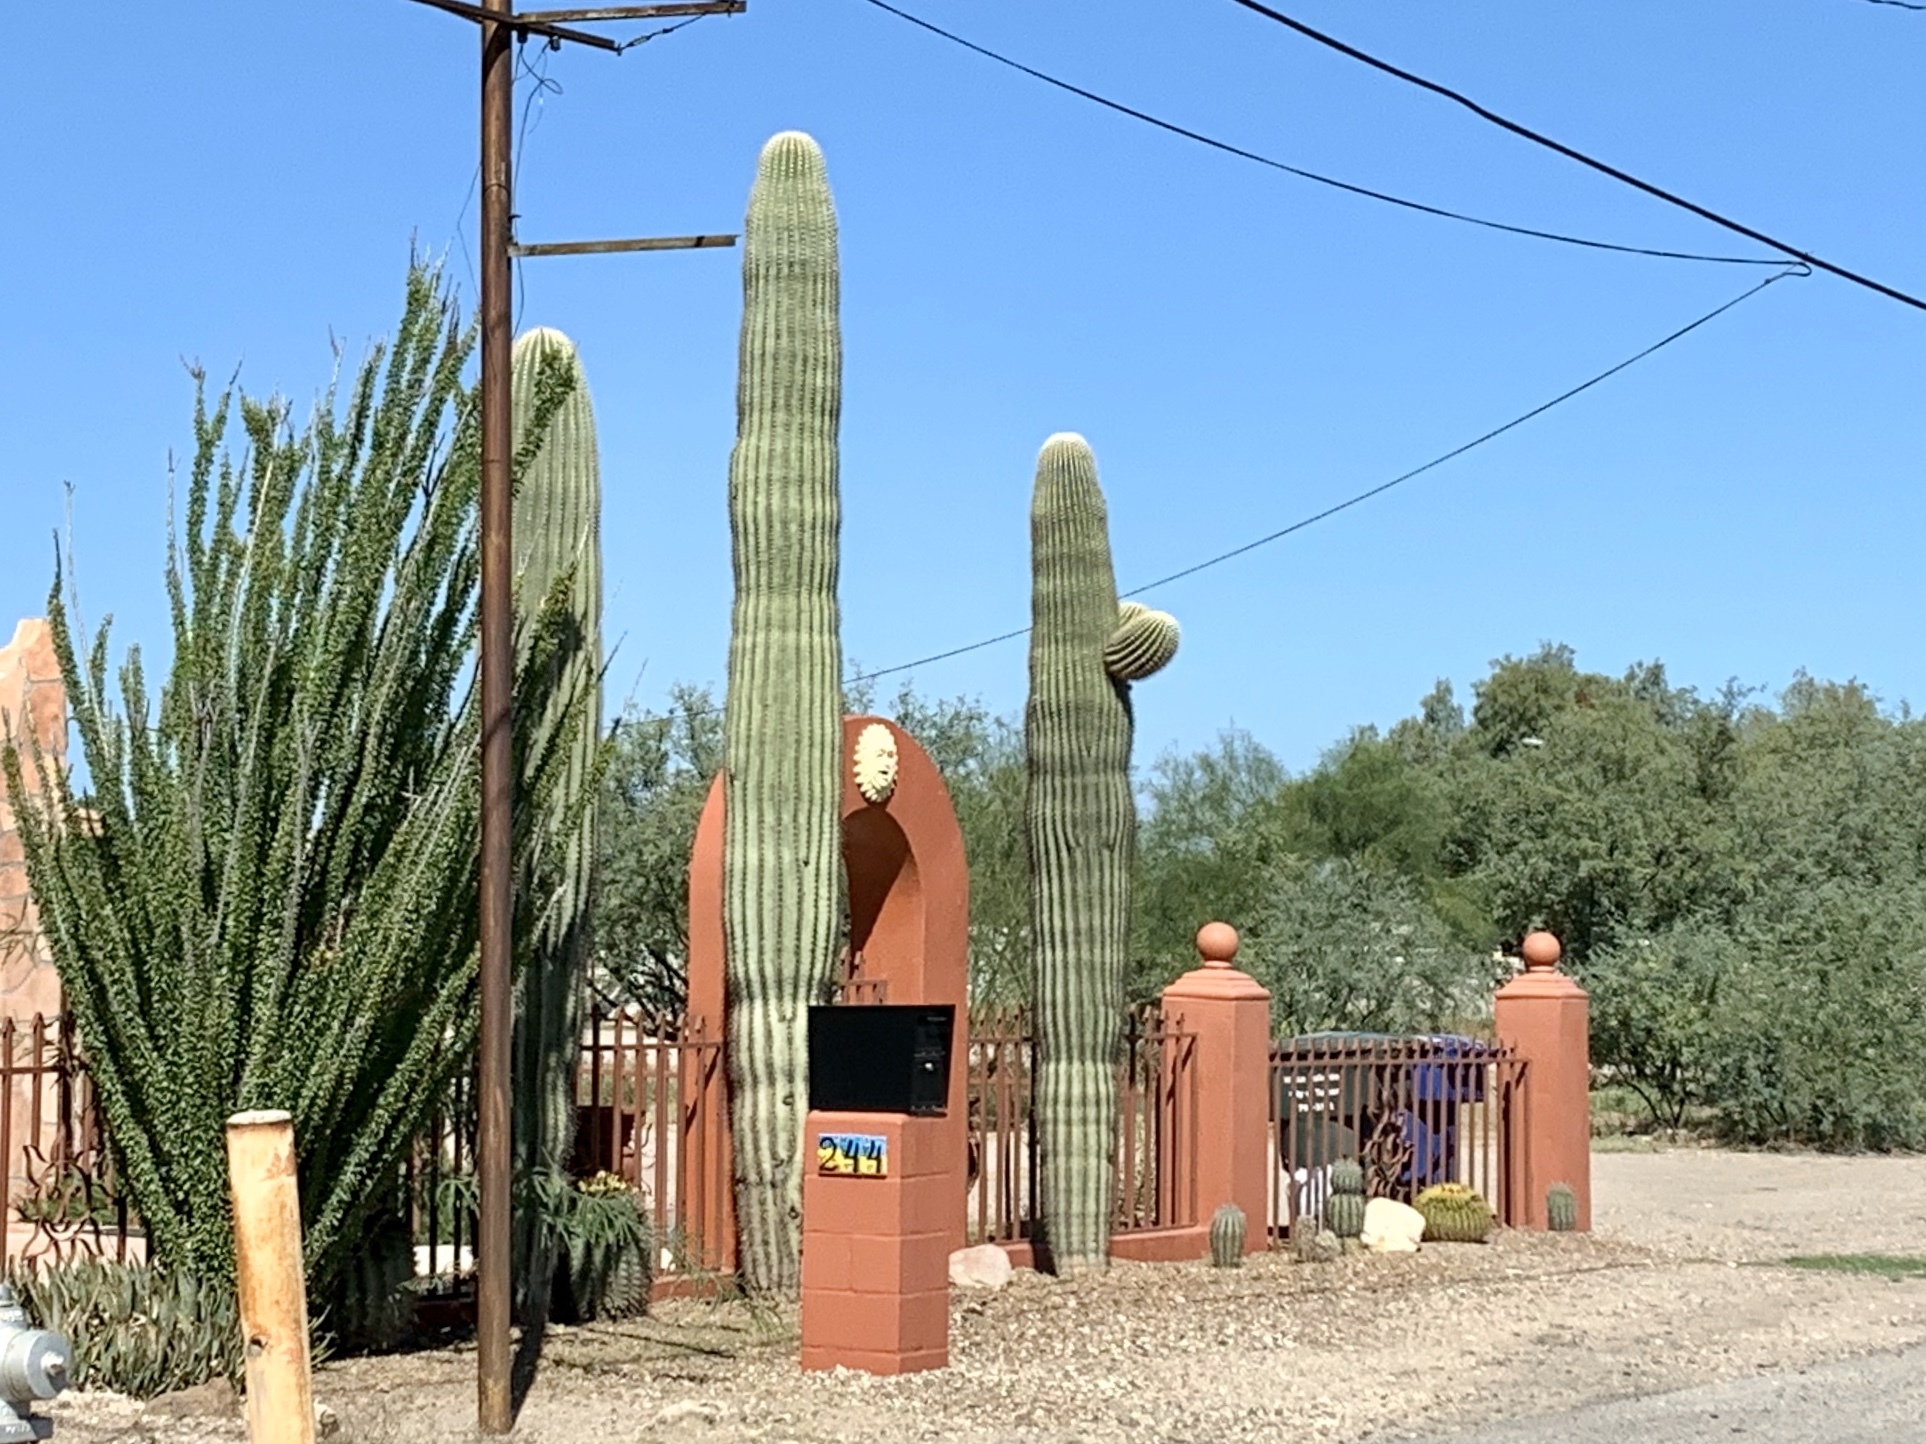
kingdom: Plantae
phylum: Tracheophyta
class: Magnoliopsida
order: Caryophyllales
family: Cactaceae
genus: Carnegiea
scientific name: Carnegiea gigantea
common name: Saguaro
